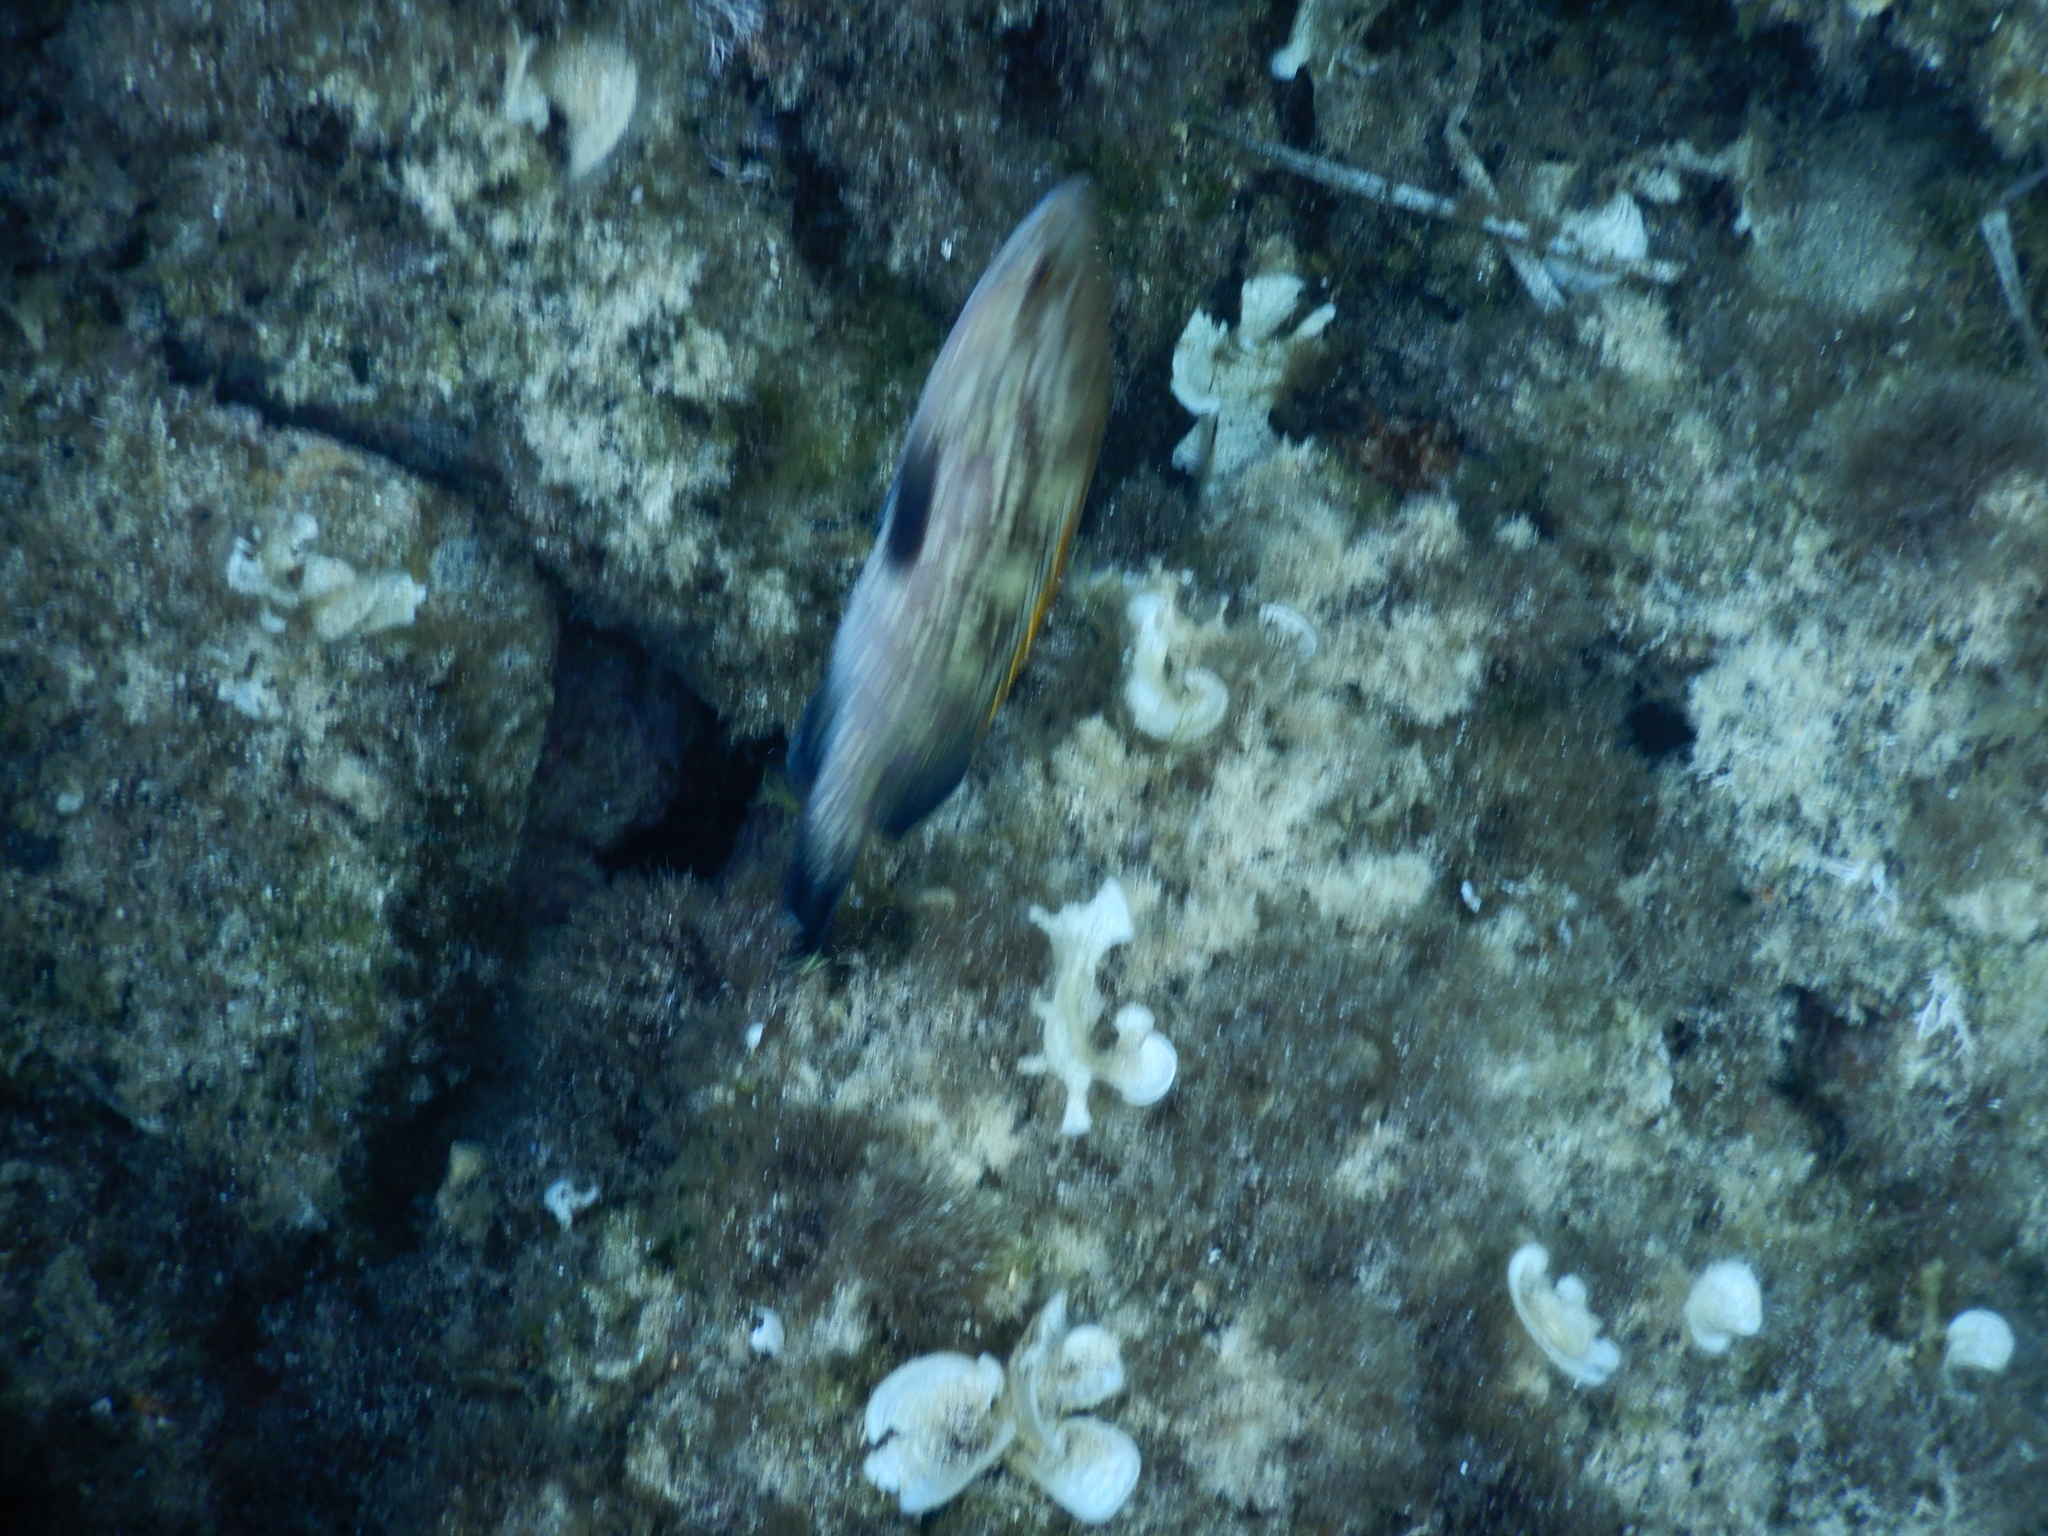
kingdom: Animalia
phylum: Chordata
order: Perciformes
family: Serranidae
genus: Epinephelus
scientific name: Epinephelus marginatus
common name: Dusky grouper
